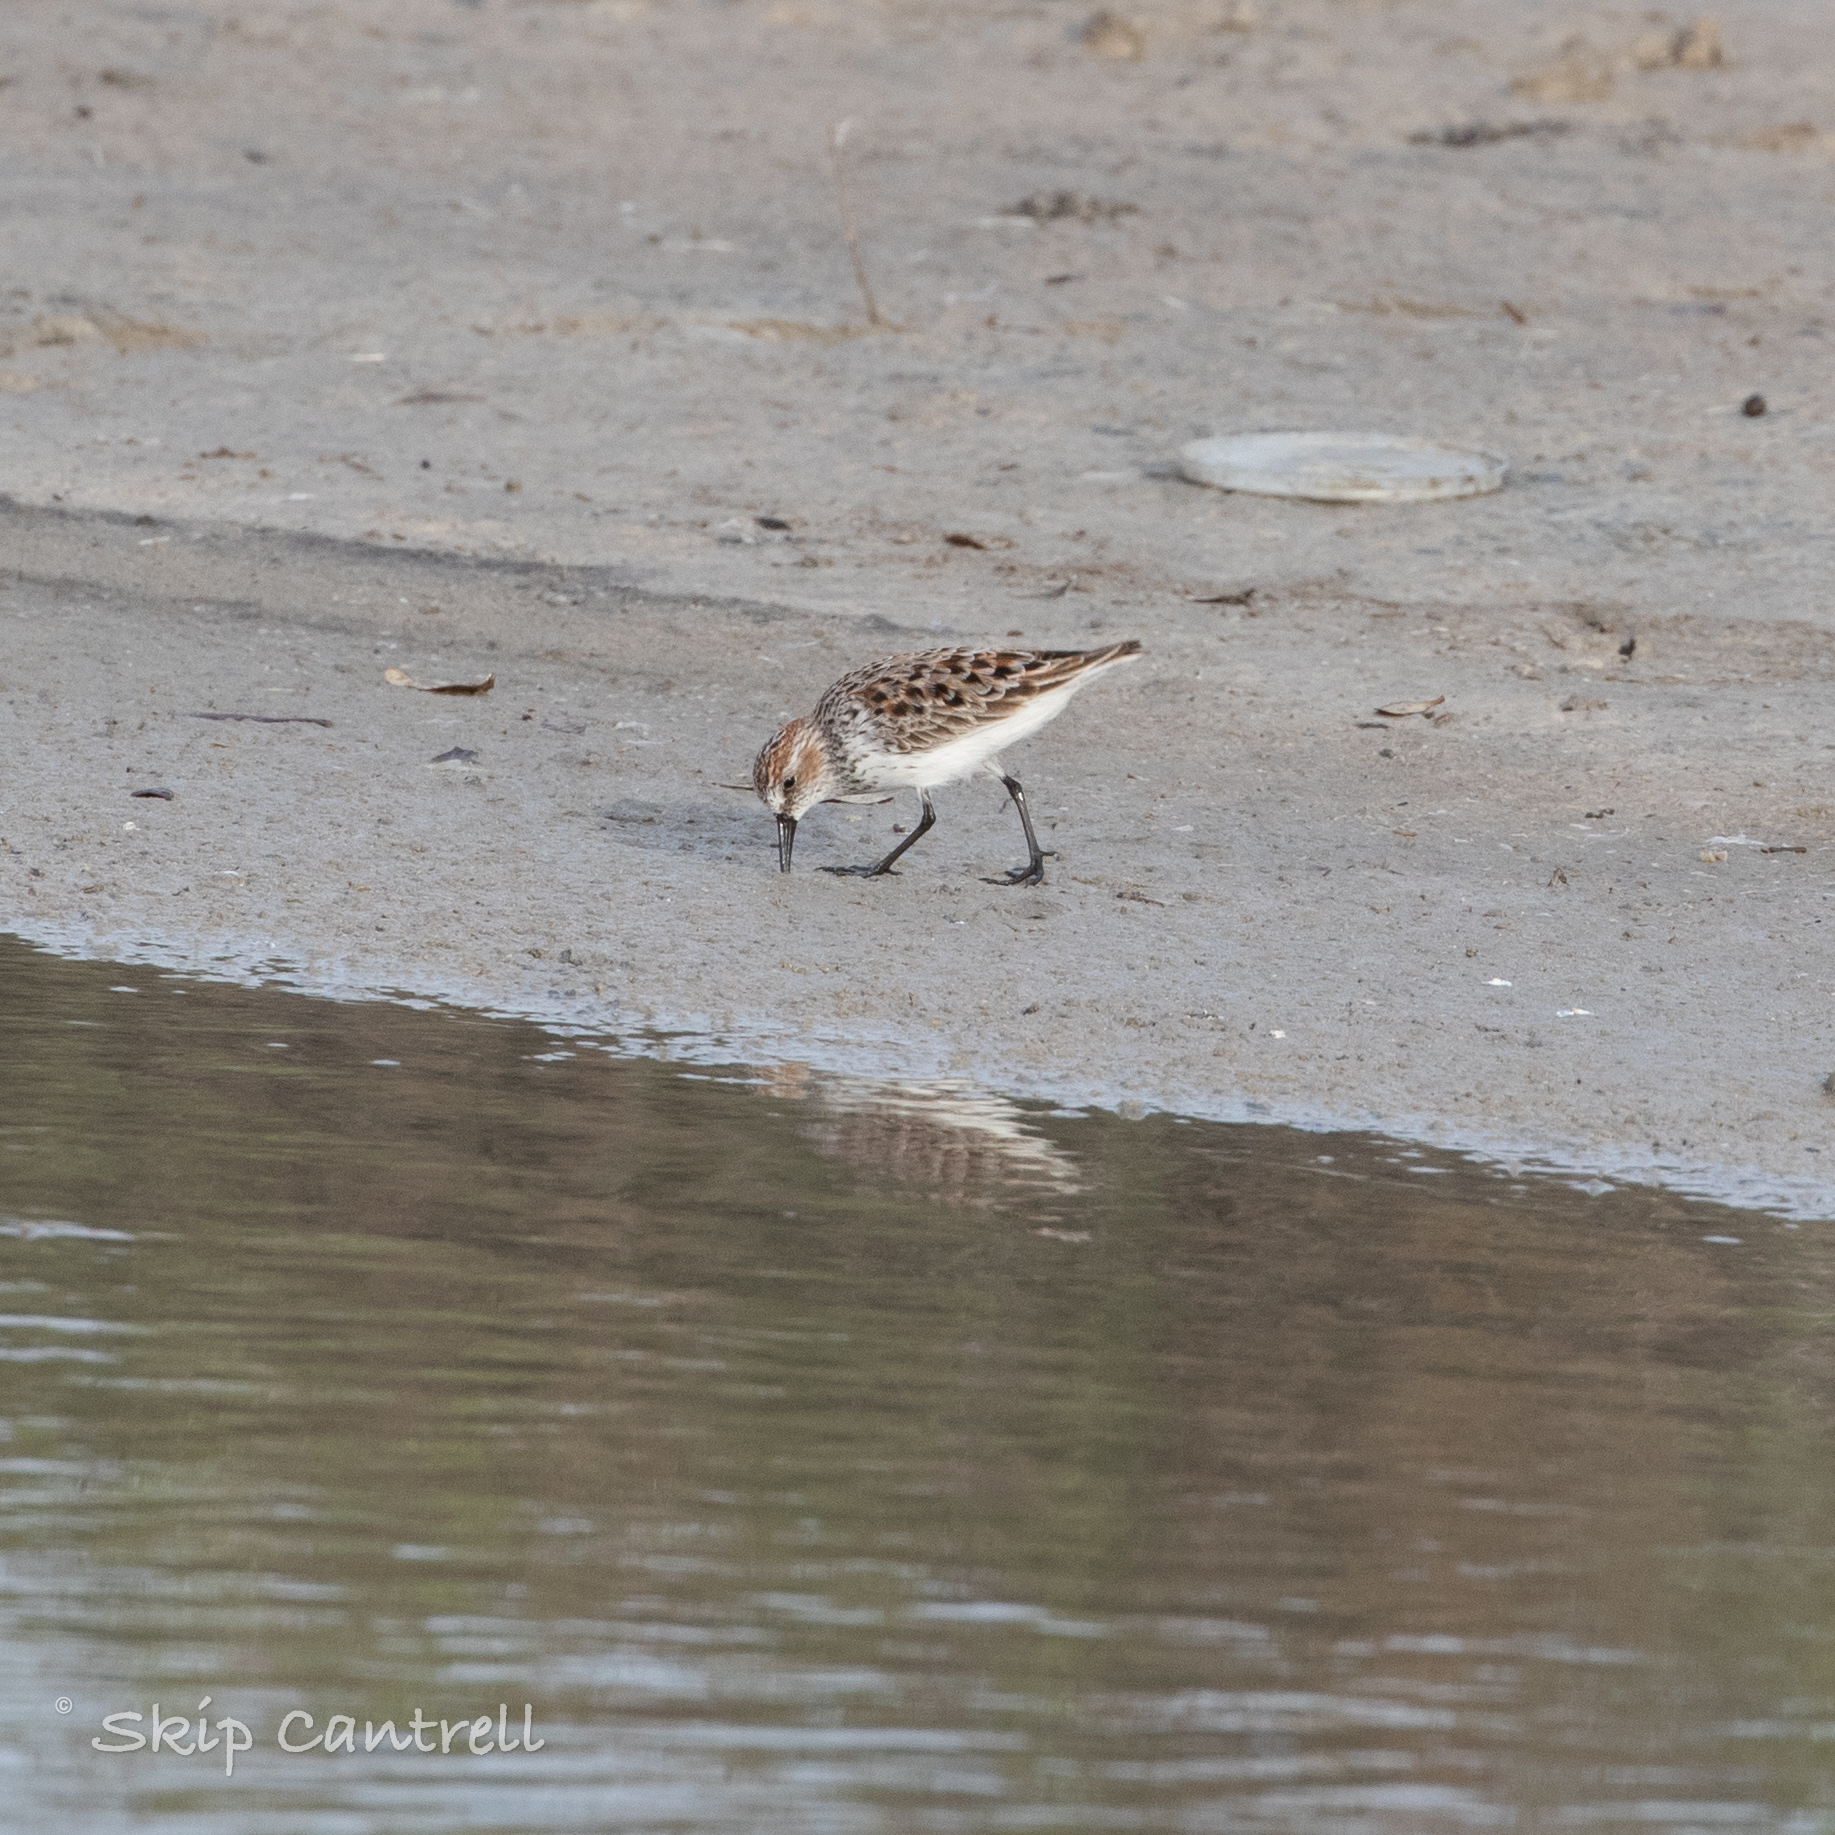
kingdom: Animalia
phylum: Chordata
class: Aves
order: Charadriiformes
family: Scolopacidae
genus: Calidris
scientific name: Calidris mauri
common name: Western sandpiper
